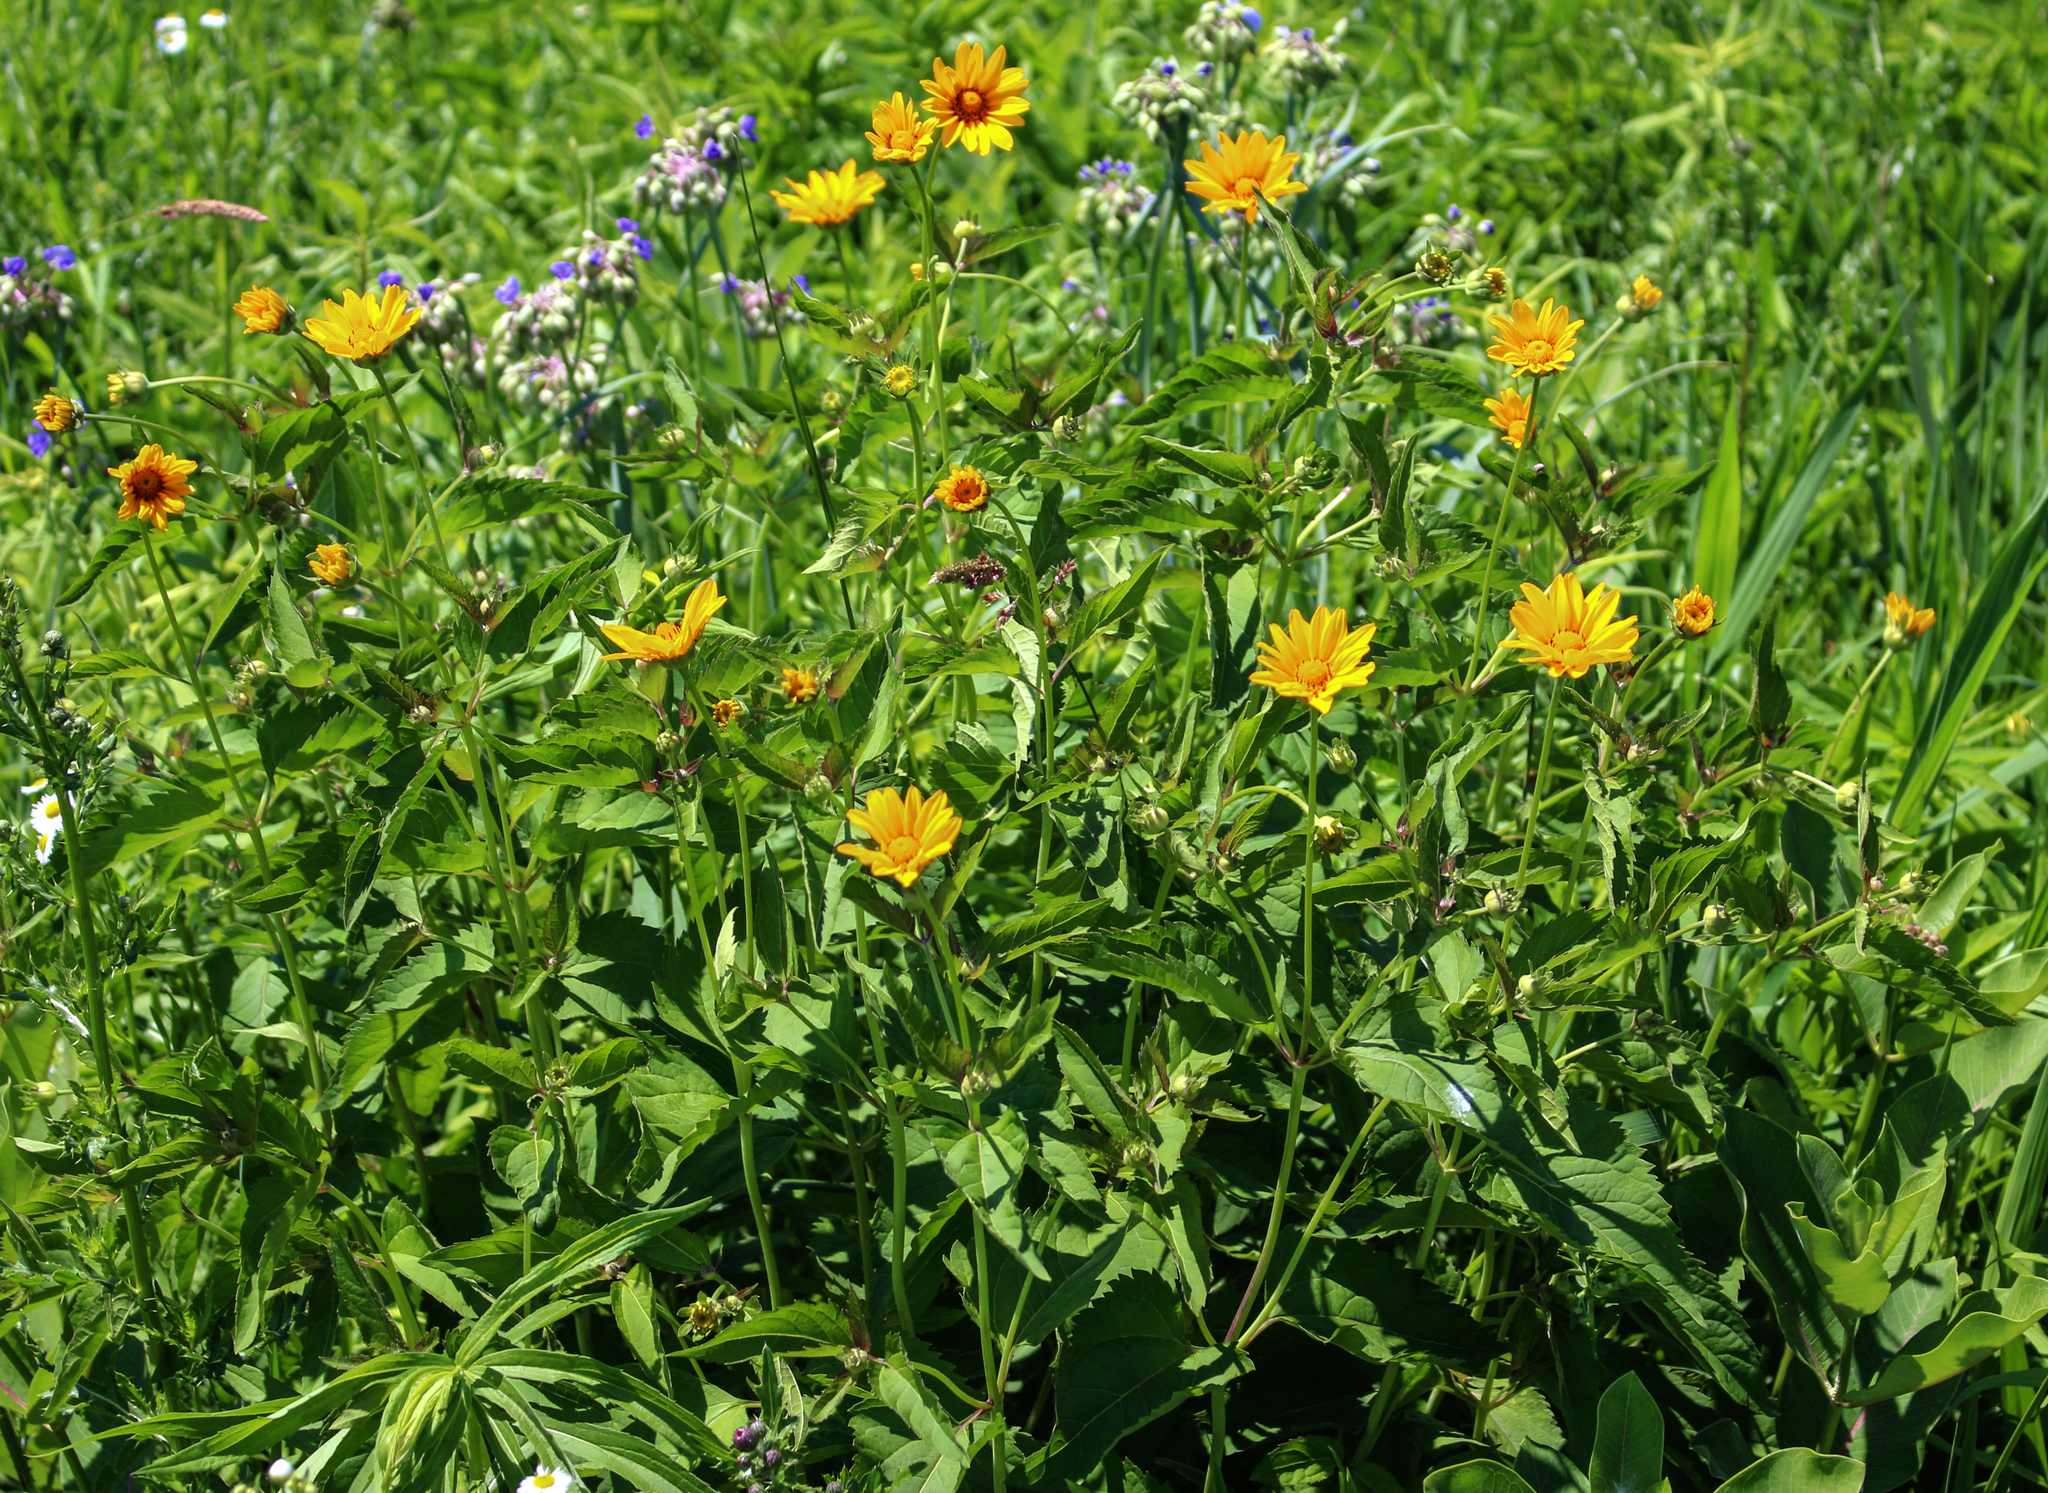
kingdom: Plantae
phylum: Tracheophyta
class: Magnoliopsida
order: Asterales
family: Asteraceae
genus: Heliopsis
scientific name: Heliopsis helianthoides
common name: False sunflower
